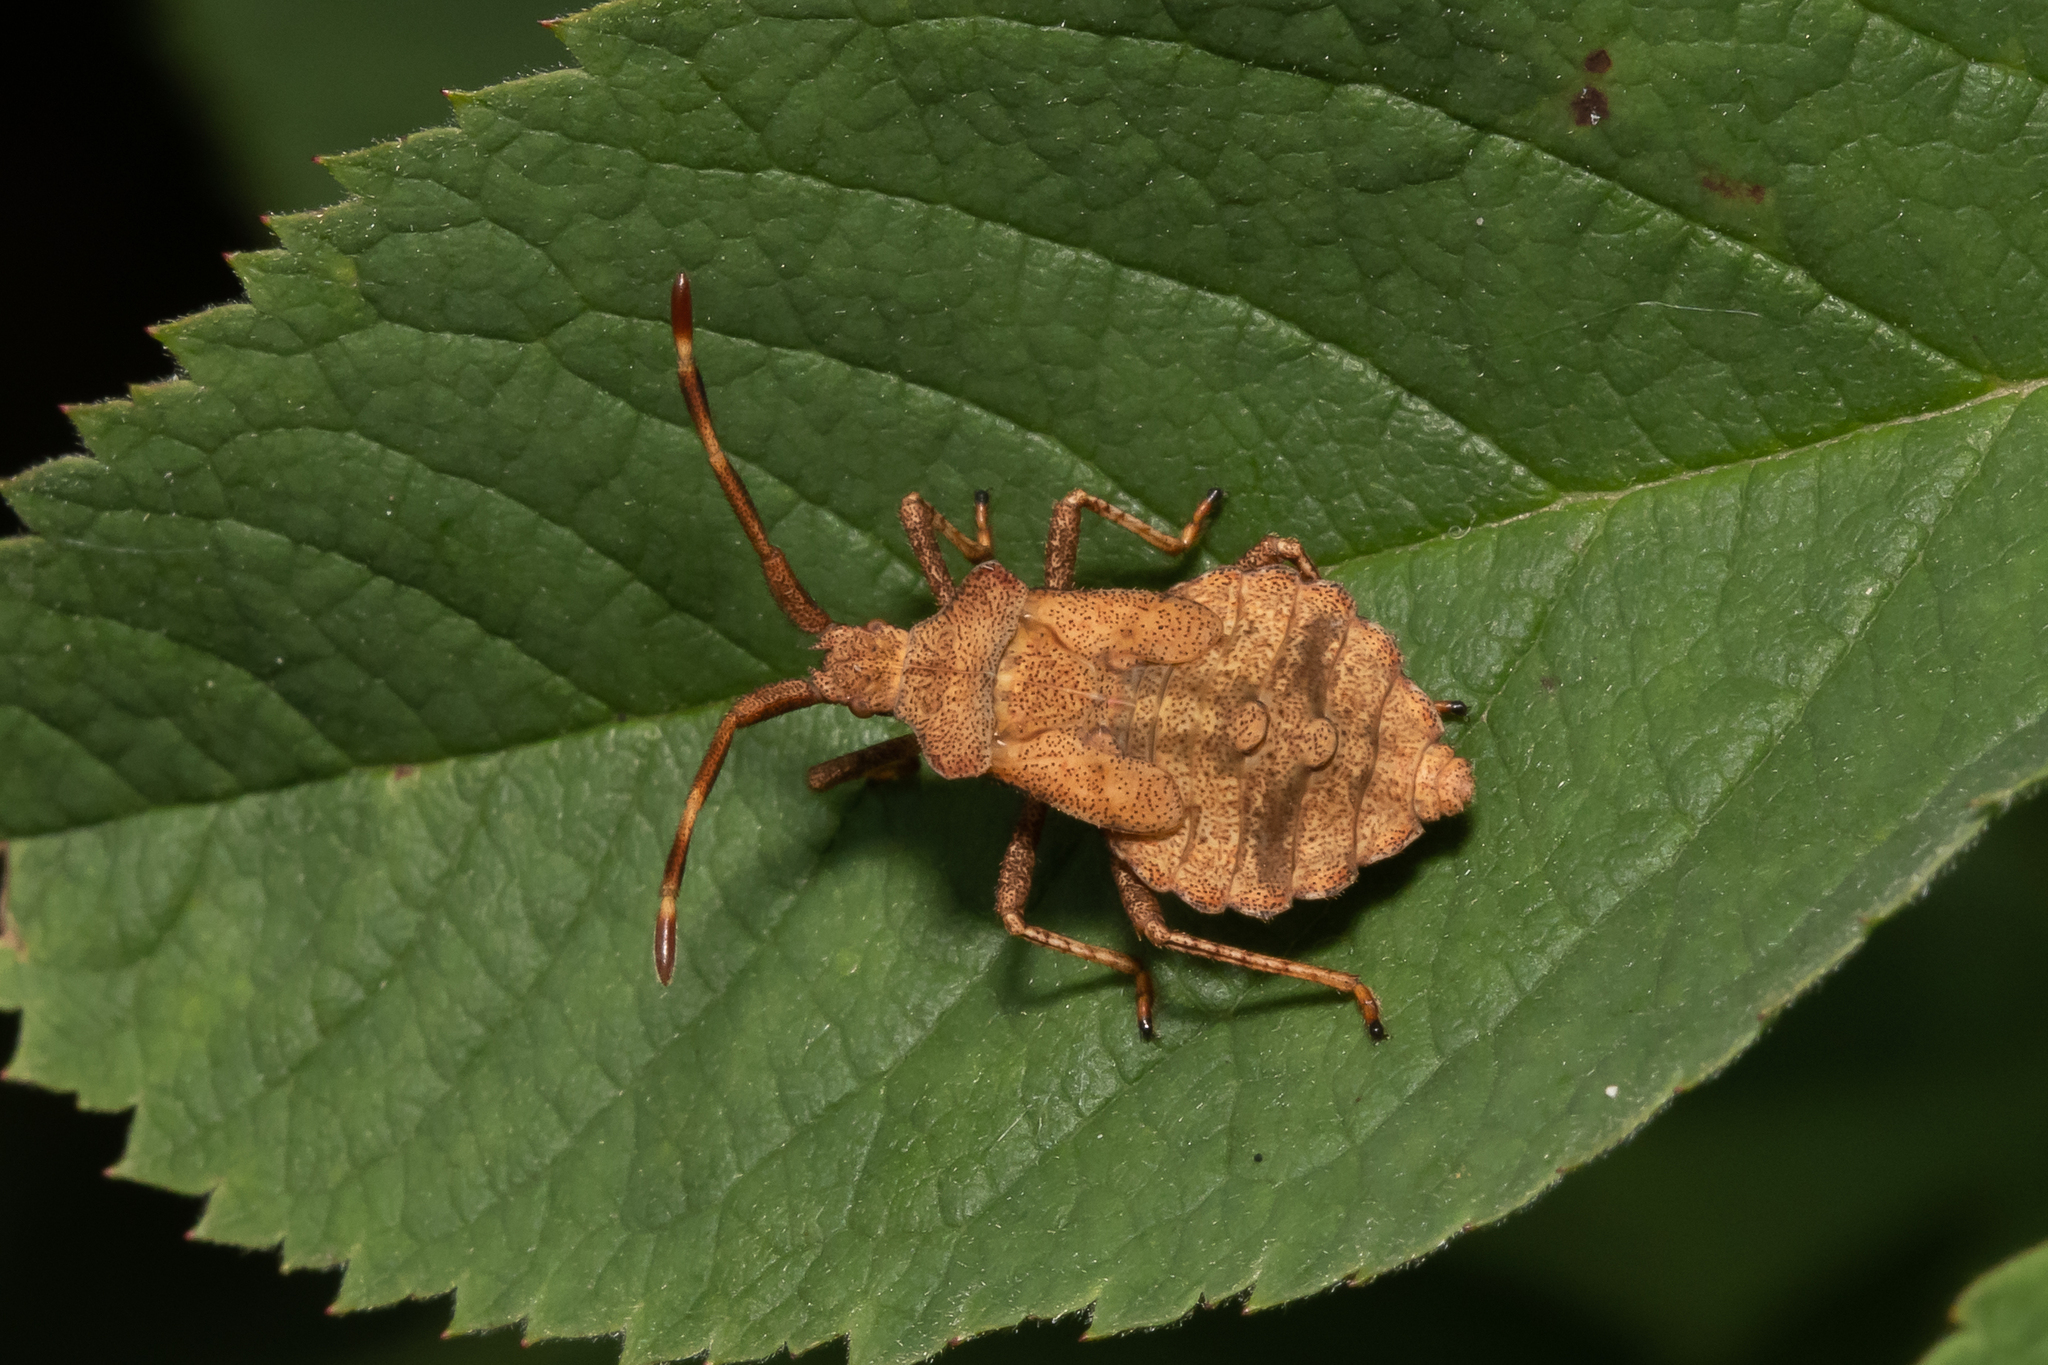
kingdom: Animalia
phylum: Arthropoda
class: Insecta
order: Hemiptera
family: Coreidae
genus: Coreus
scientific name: Coreus marginatus
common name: Dock bug
